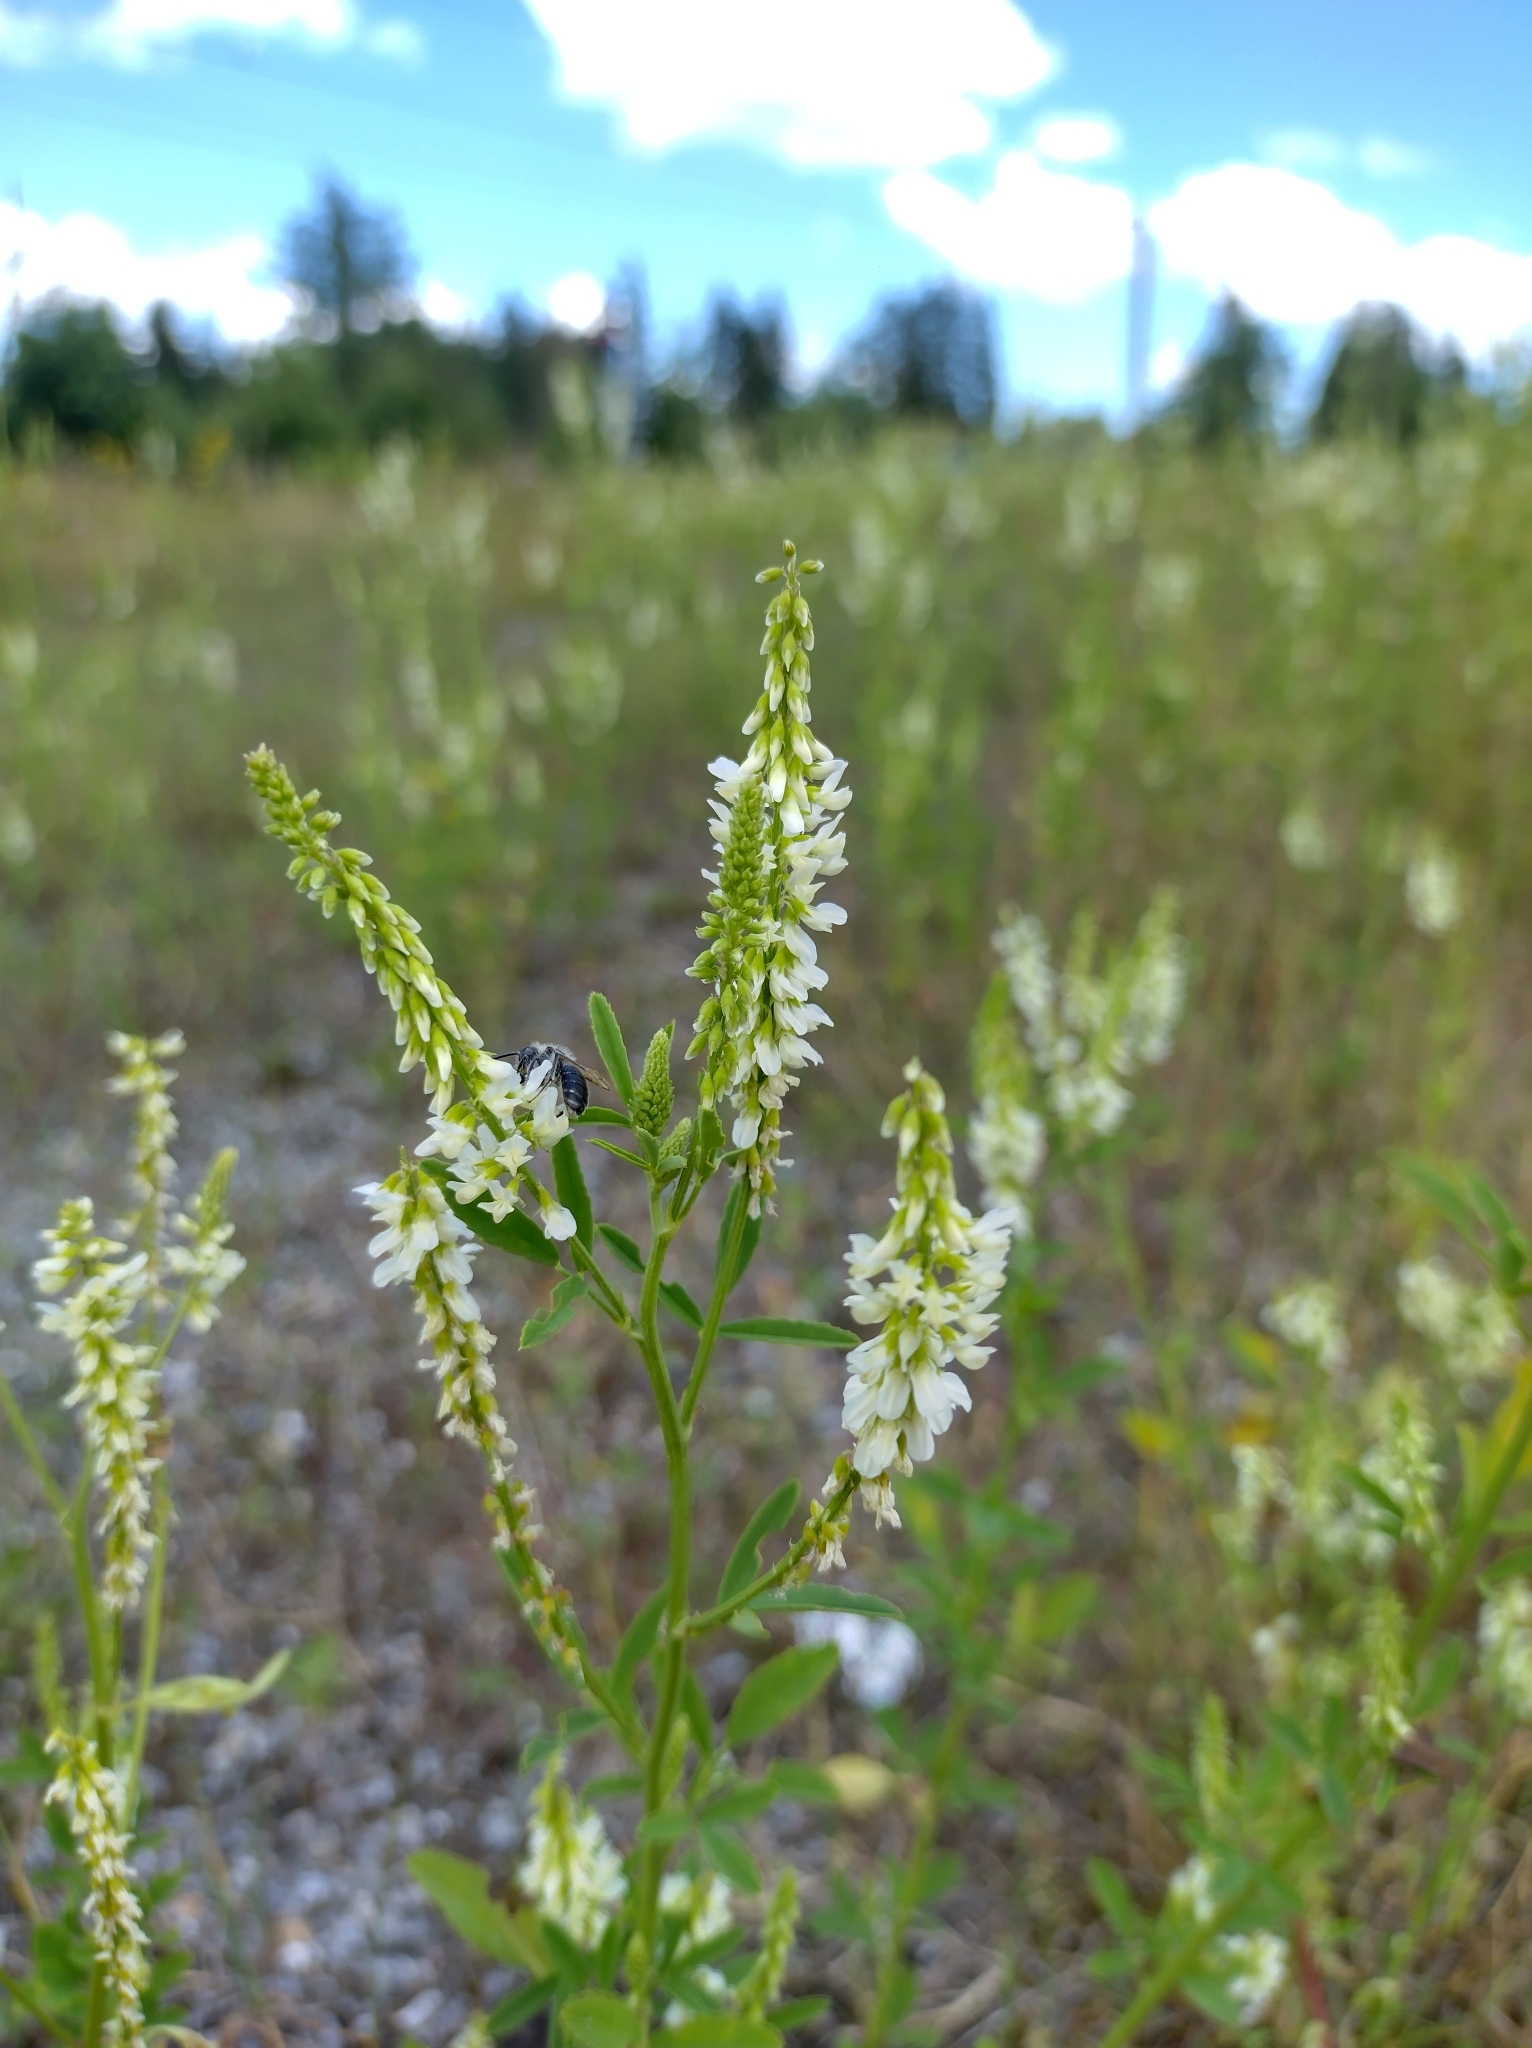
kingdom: Plantae
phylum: Tracheophyta
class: Magnoliopsida
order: Fabales
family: Fabaceae
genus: Melilotus
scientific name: Melilotus albus
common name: White melilot
